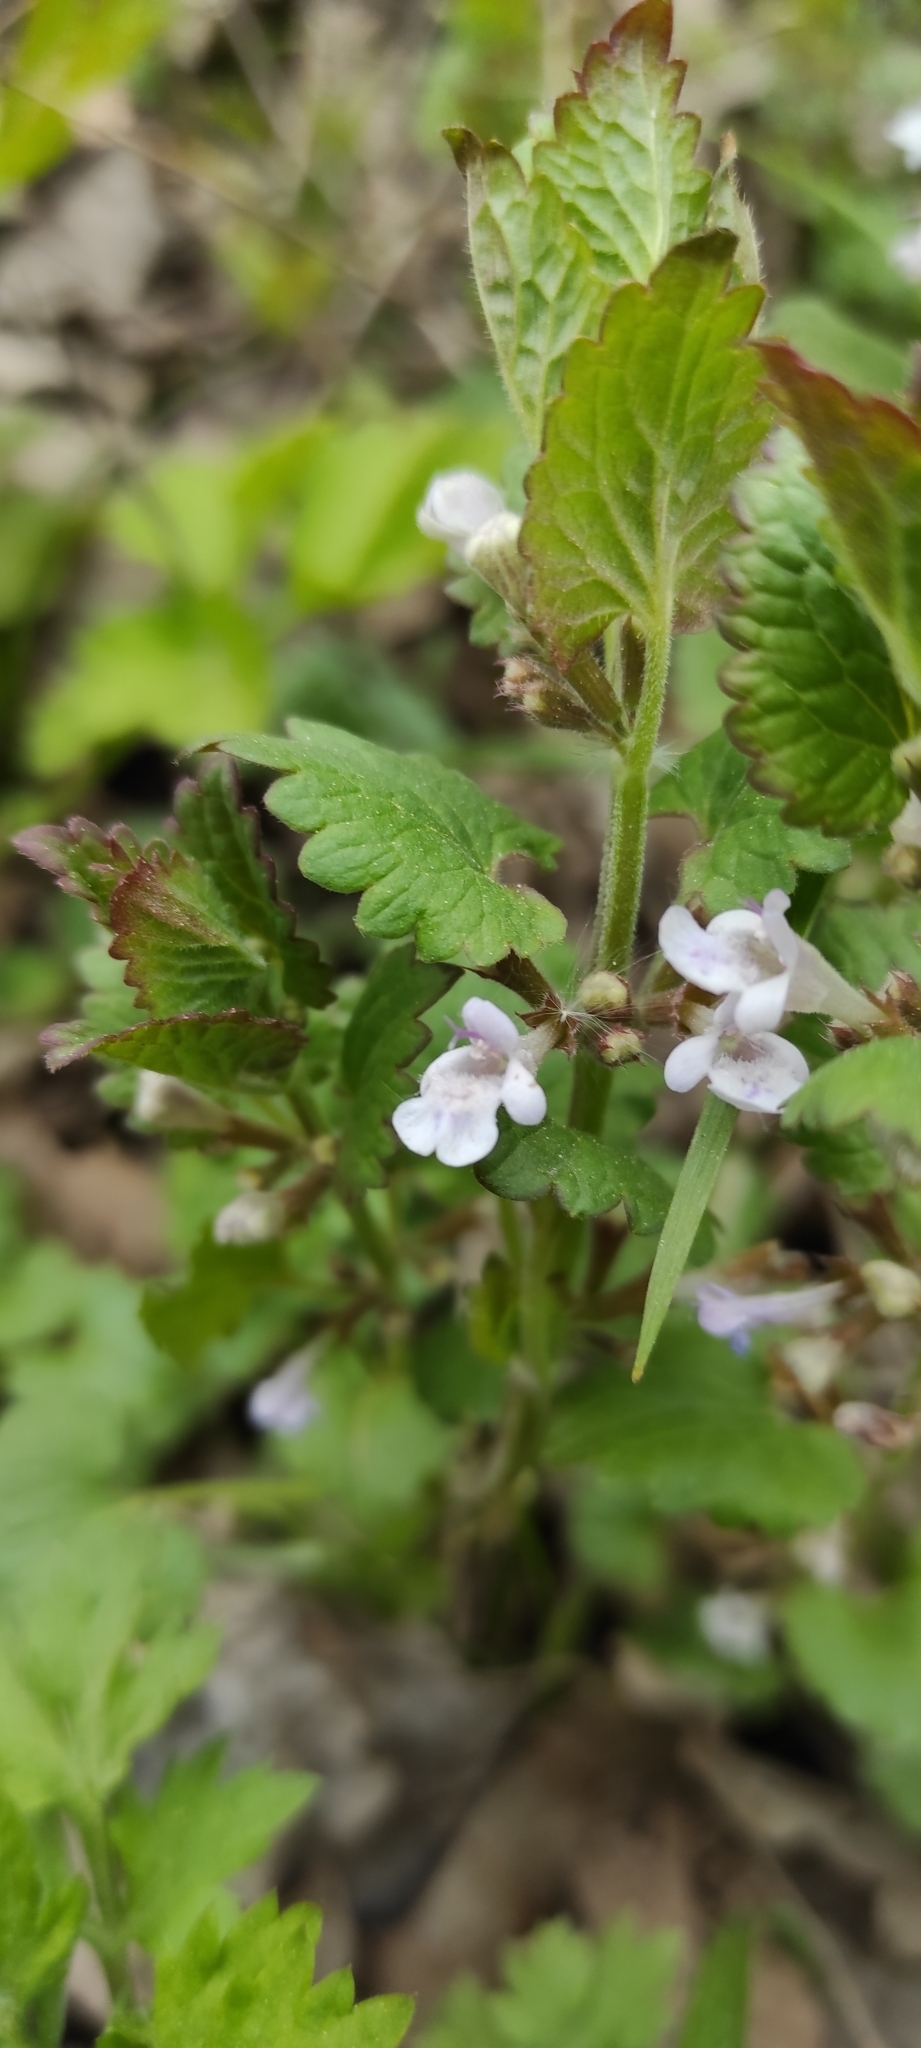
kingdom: Plantae
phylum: Tracheophyta
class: Magnoliopsida
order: Lamiales
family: Lamiaceae
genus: Glechoma
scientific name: Glechoma hederacea
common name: Ground ivy
